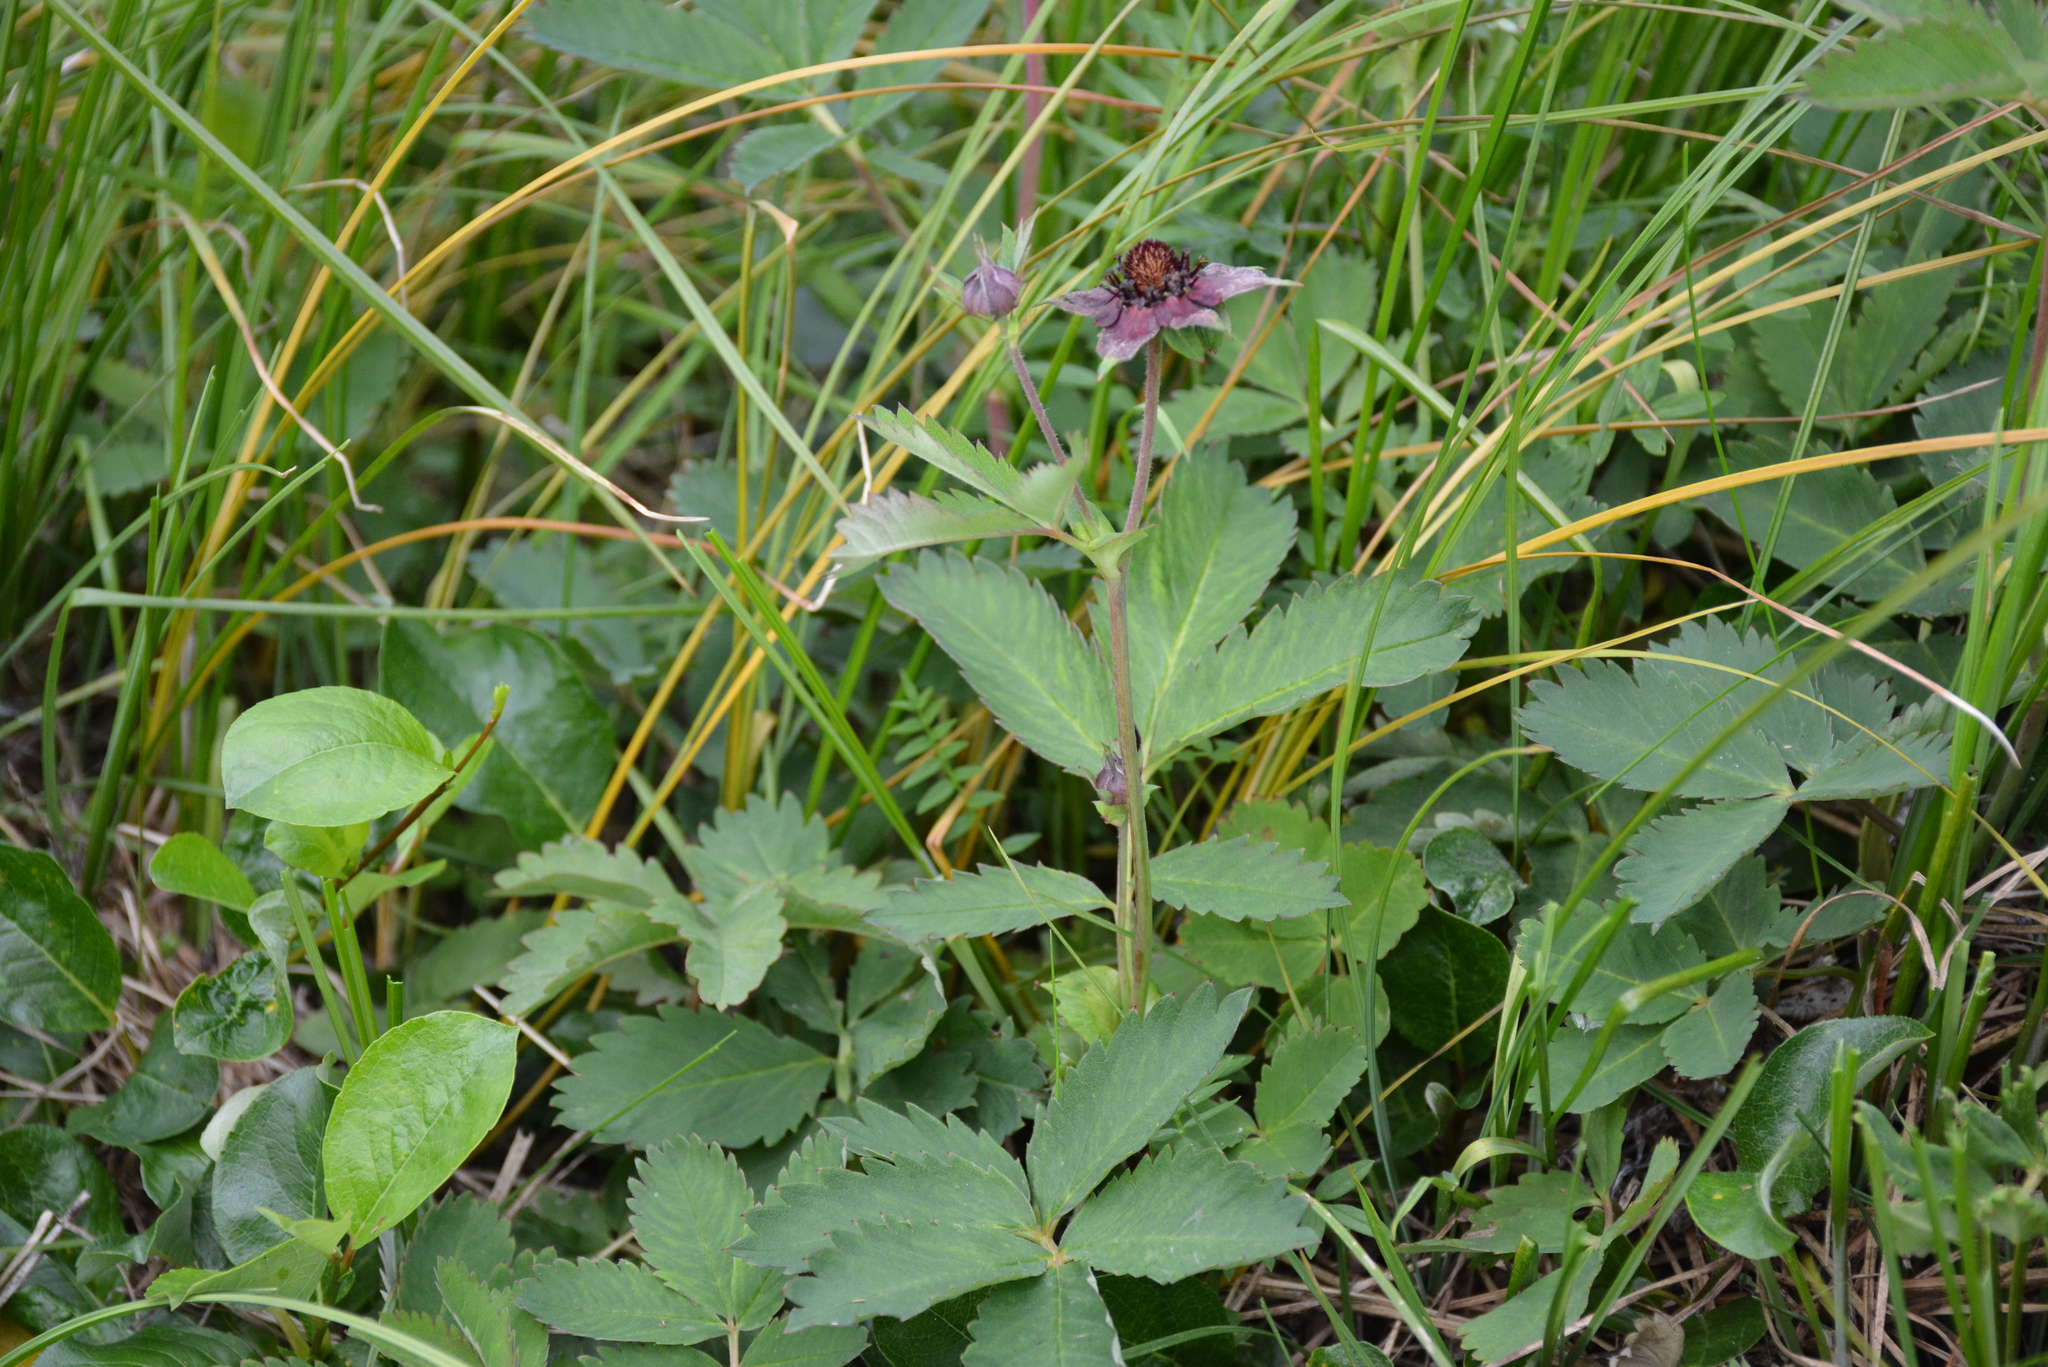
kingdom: Plantae
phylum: Tracheophyta
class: Magnoliopsida
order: Rosales
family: Rosaceae
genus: Comarum
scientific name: Comarum palustre
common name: Marsh cinquefoil
